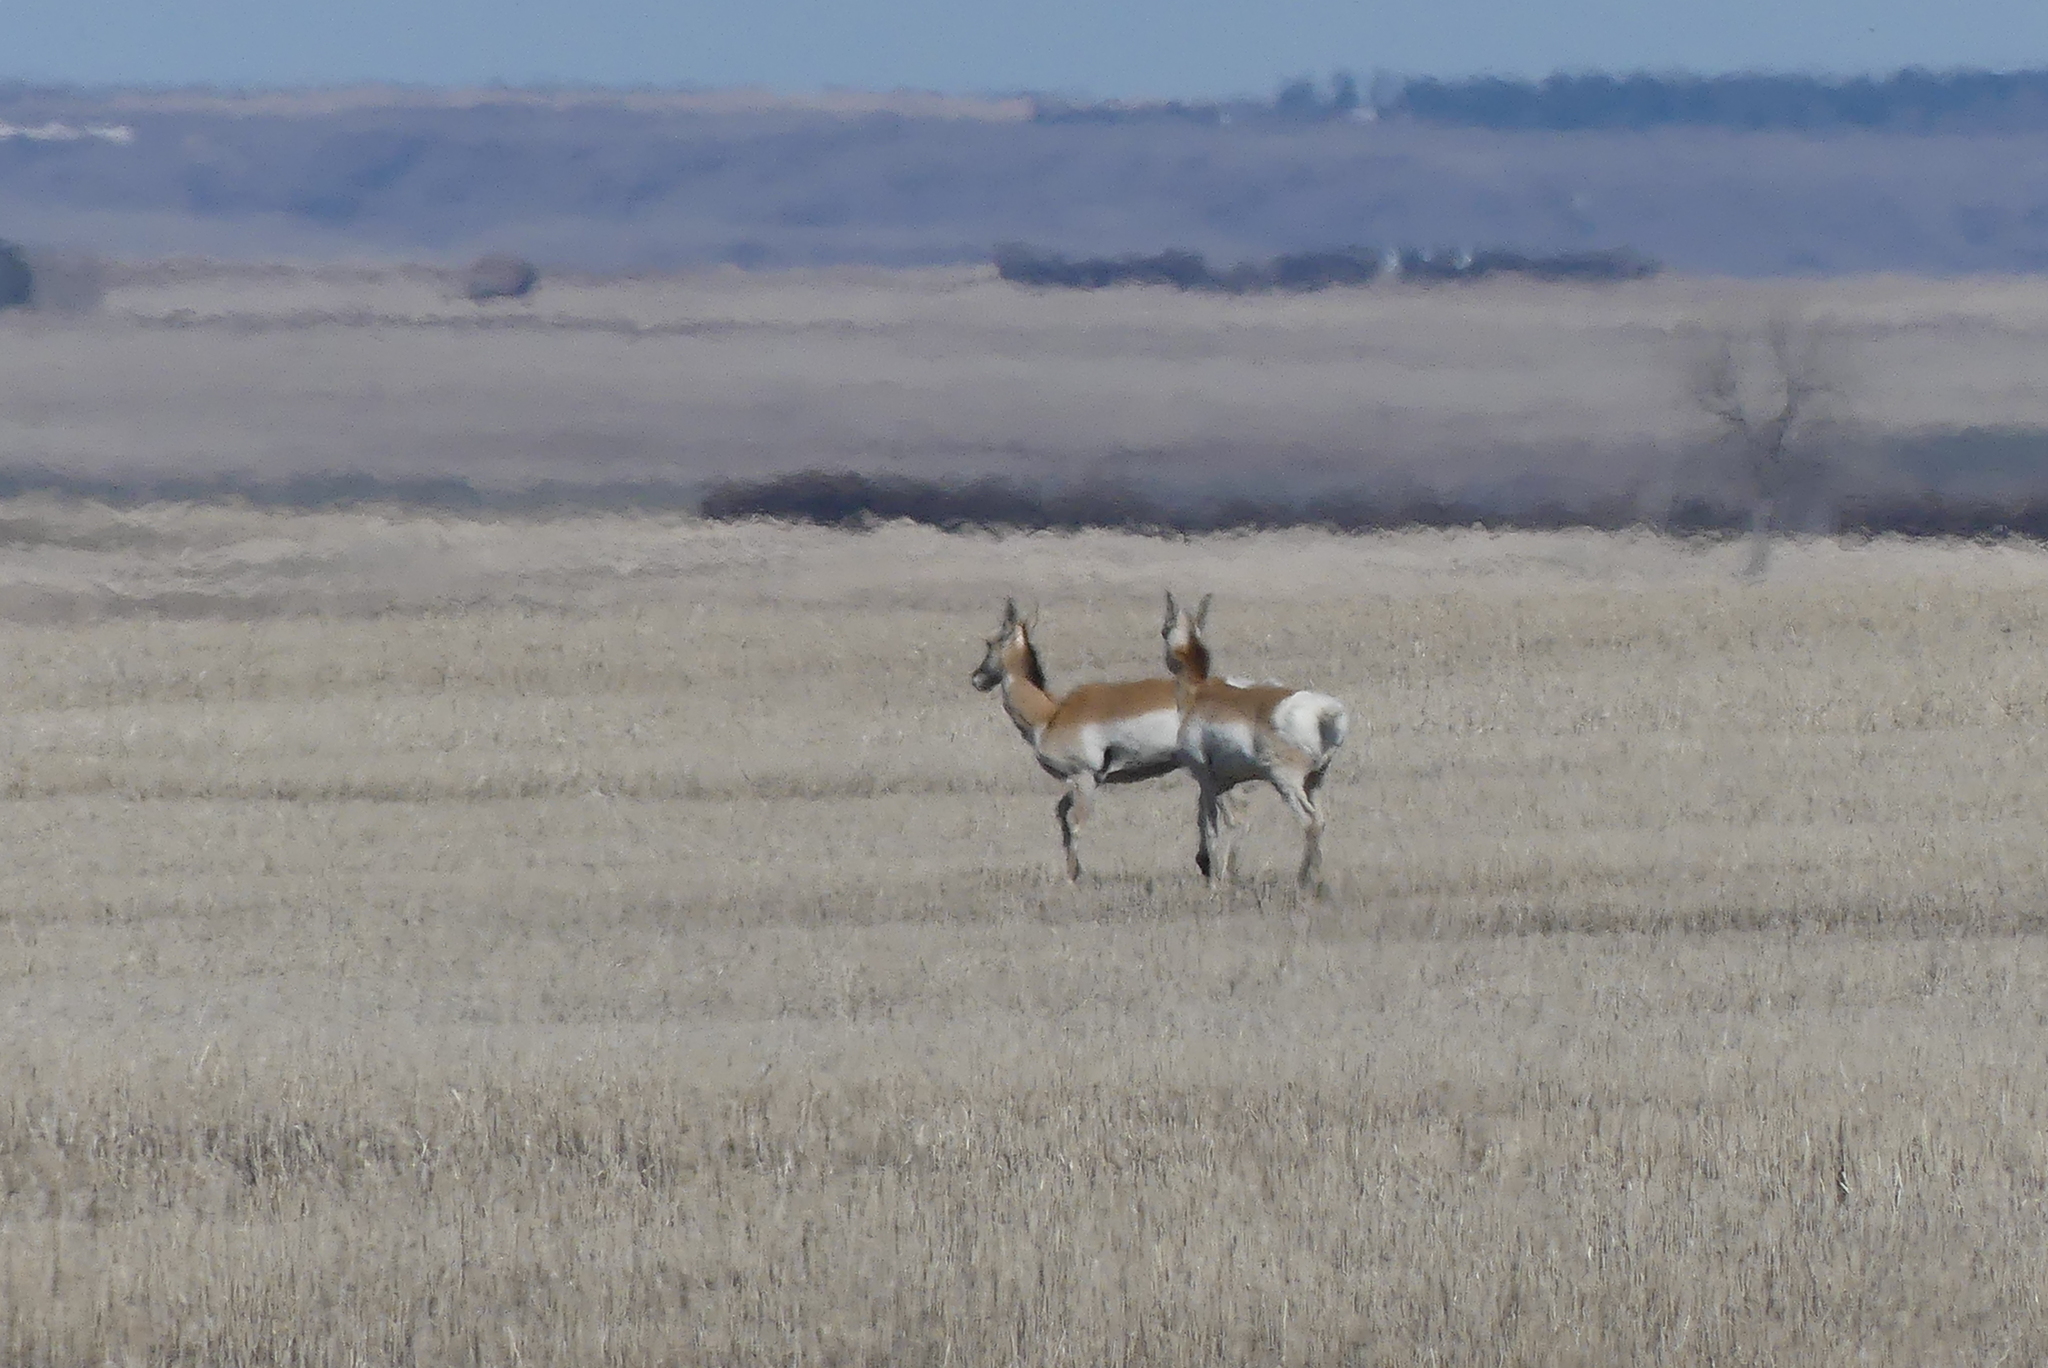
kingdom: Animalia
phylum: Chordata
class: Mammalia
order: Artiodactyla
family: Antilocapridae
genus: Antilocapra
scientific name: Antilocapra americana
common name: Pronghorn
